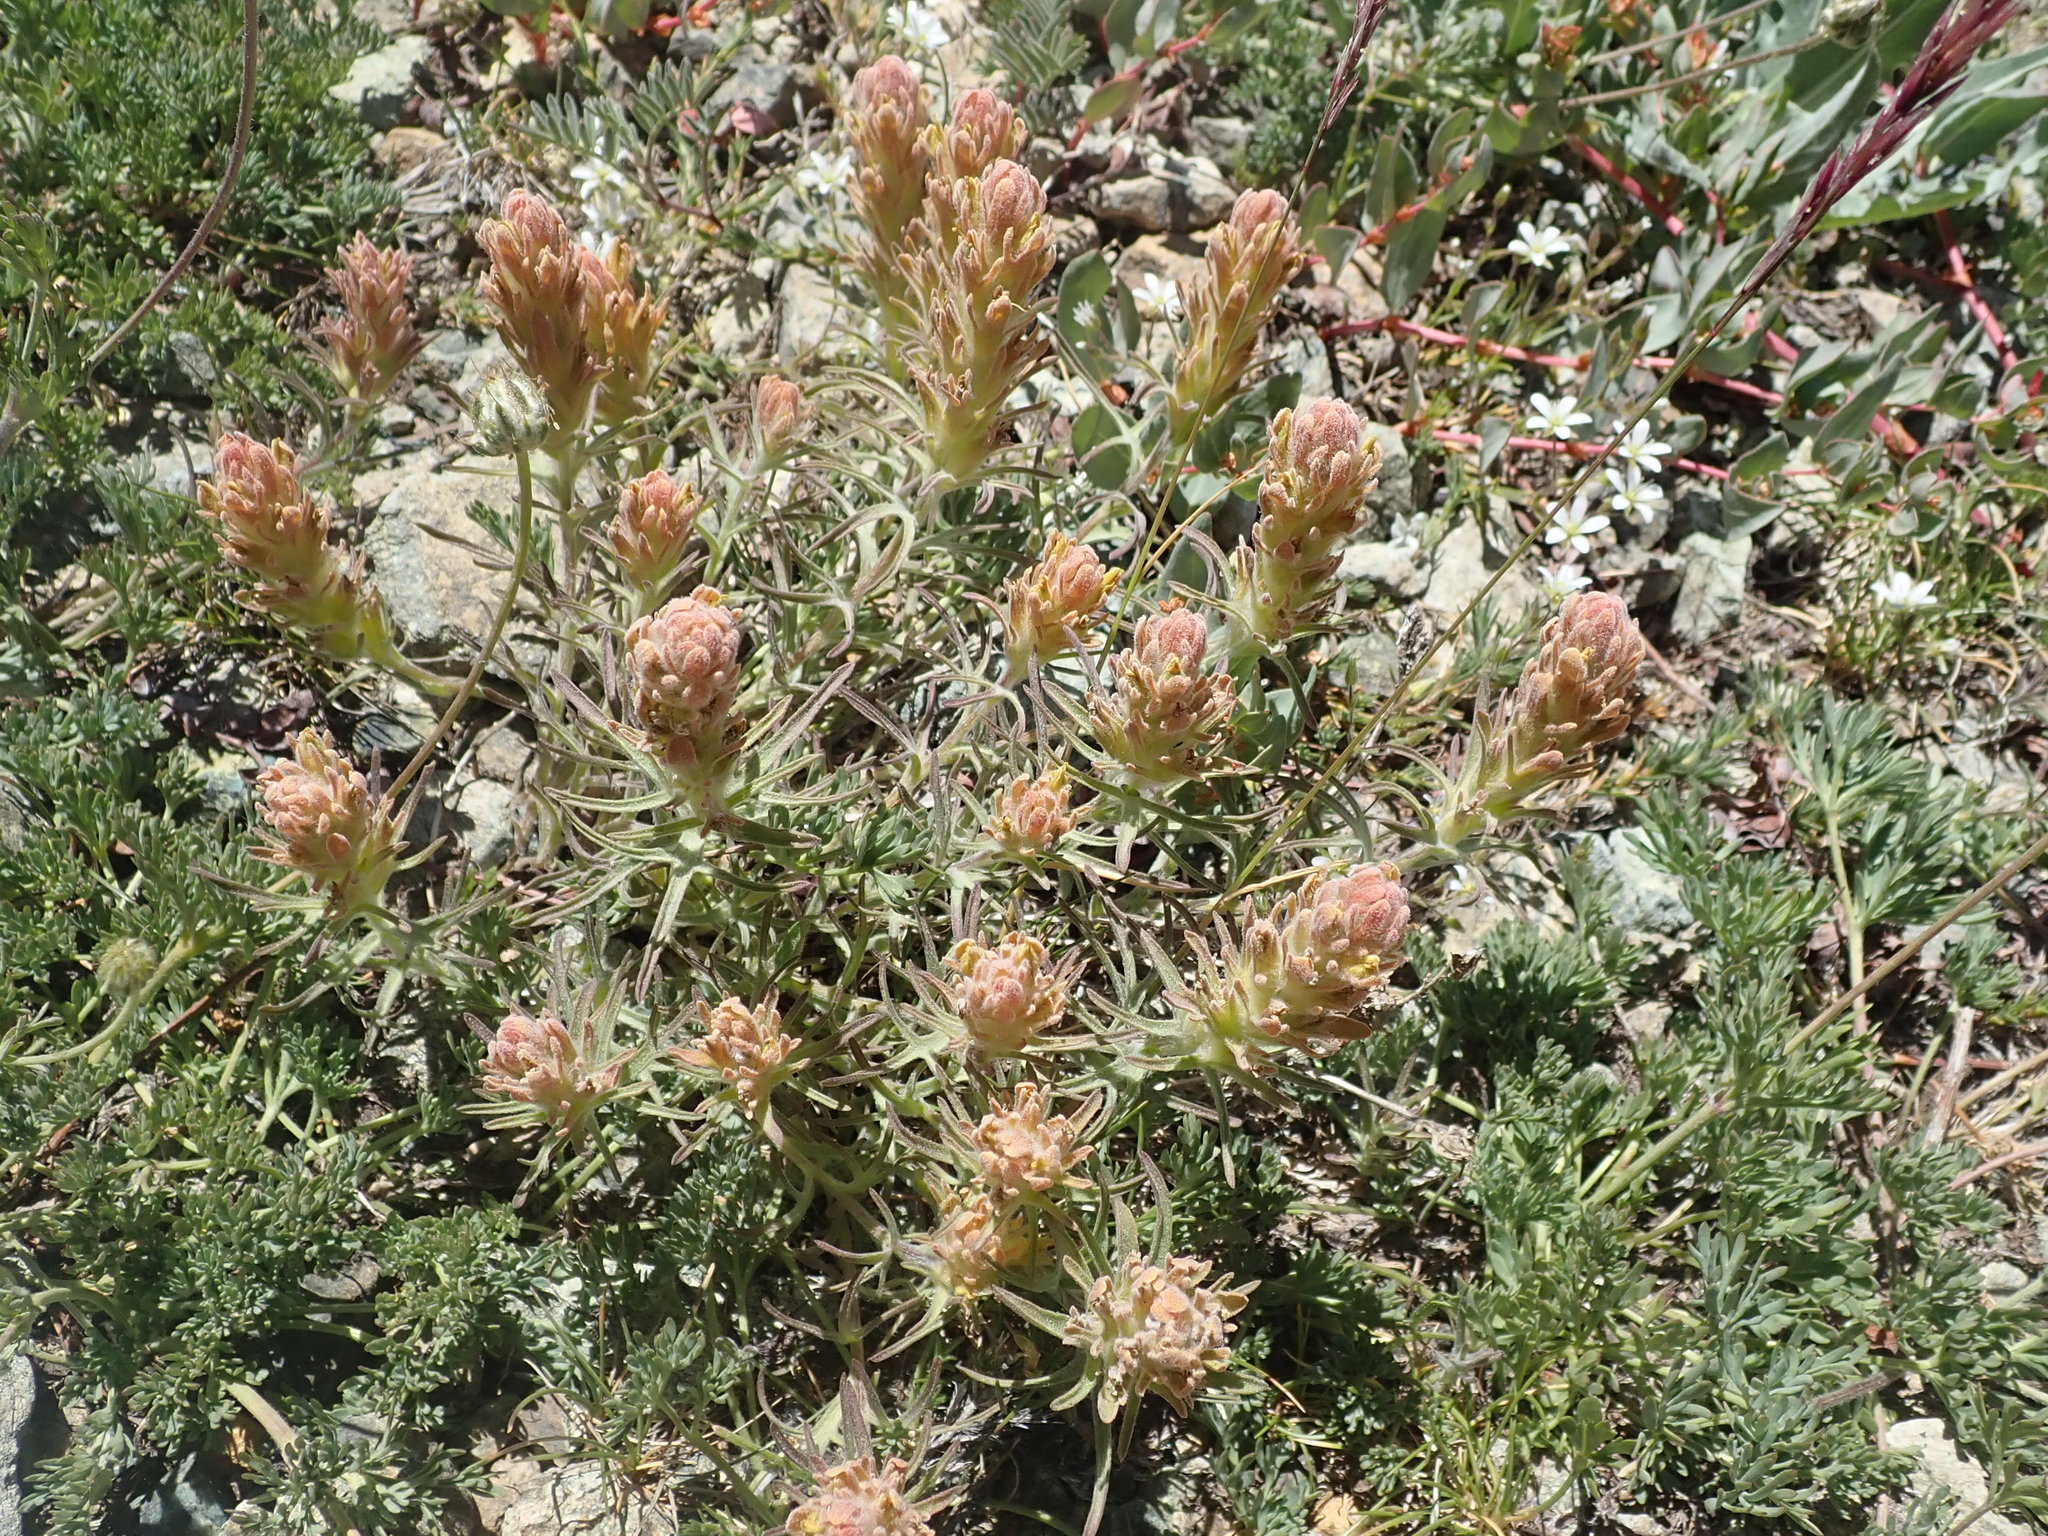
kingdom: Plantae
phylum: Tracheophyta
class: Magnoliopsida
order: Lamiales
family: Orobanchaceae
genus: Castilleja
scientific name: Castilleja arachnoidea
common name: Cobwebby indian paintbrush
